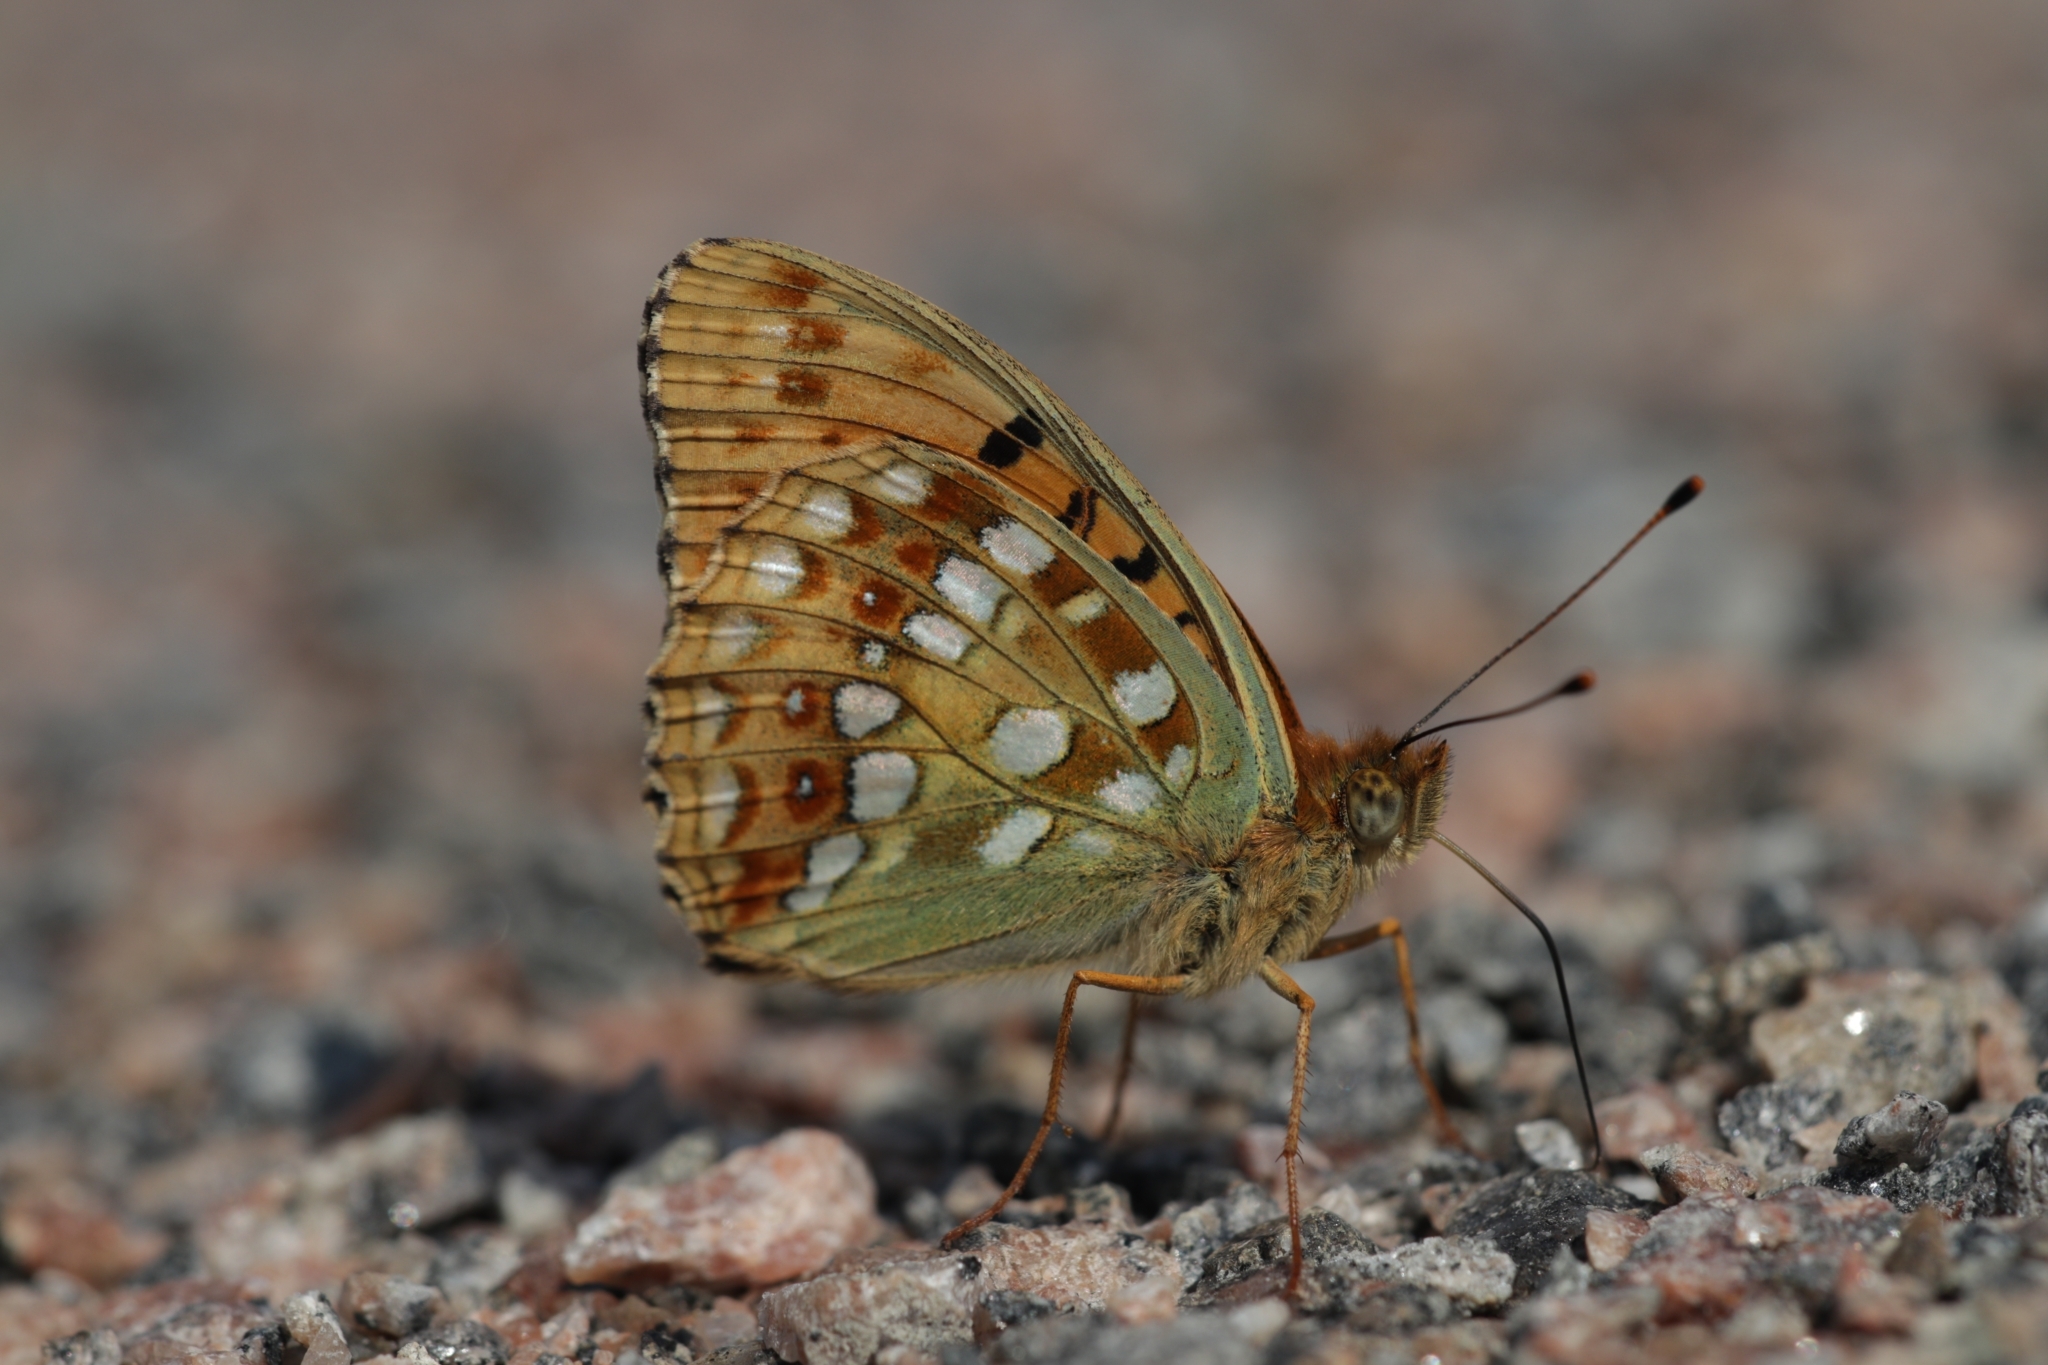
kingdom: Animalia
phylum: Arthropoda
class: Insecta
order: Lepidoptera
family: Nymphalidae
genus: Fabriciana
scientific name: Fabriciana adippe
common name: High brown fritillary
